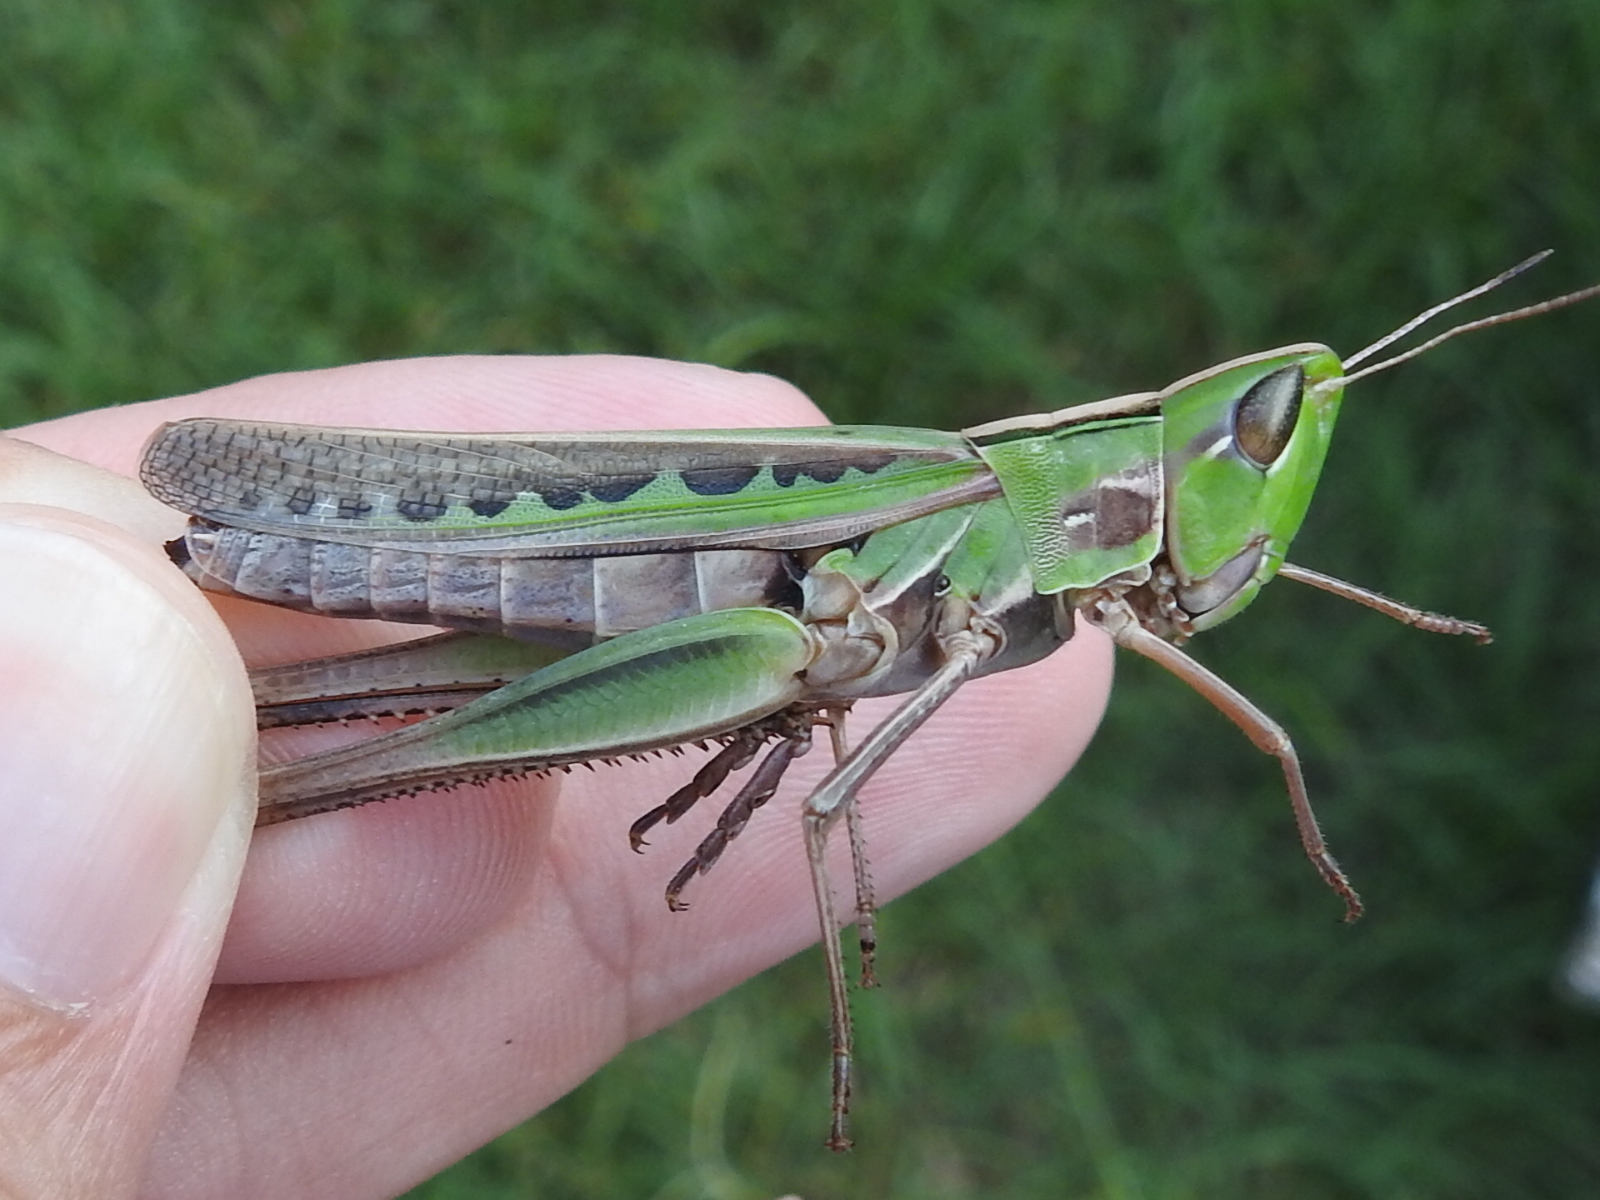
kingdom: Animalia
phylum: Arthropoda
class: Insecta
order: Orthoptera
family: Acrididae
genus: Syrbula
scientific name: Syrbula admirabilis
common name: Handsome grasshopper
